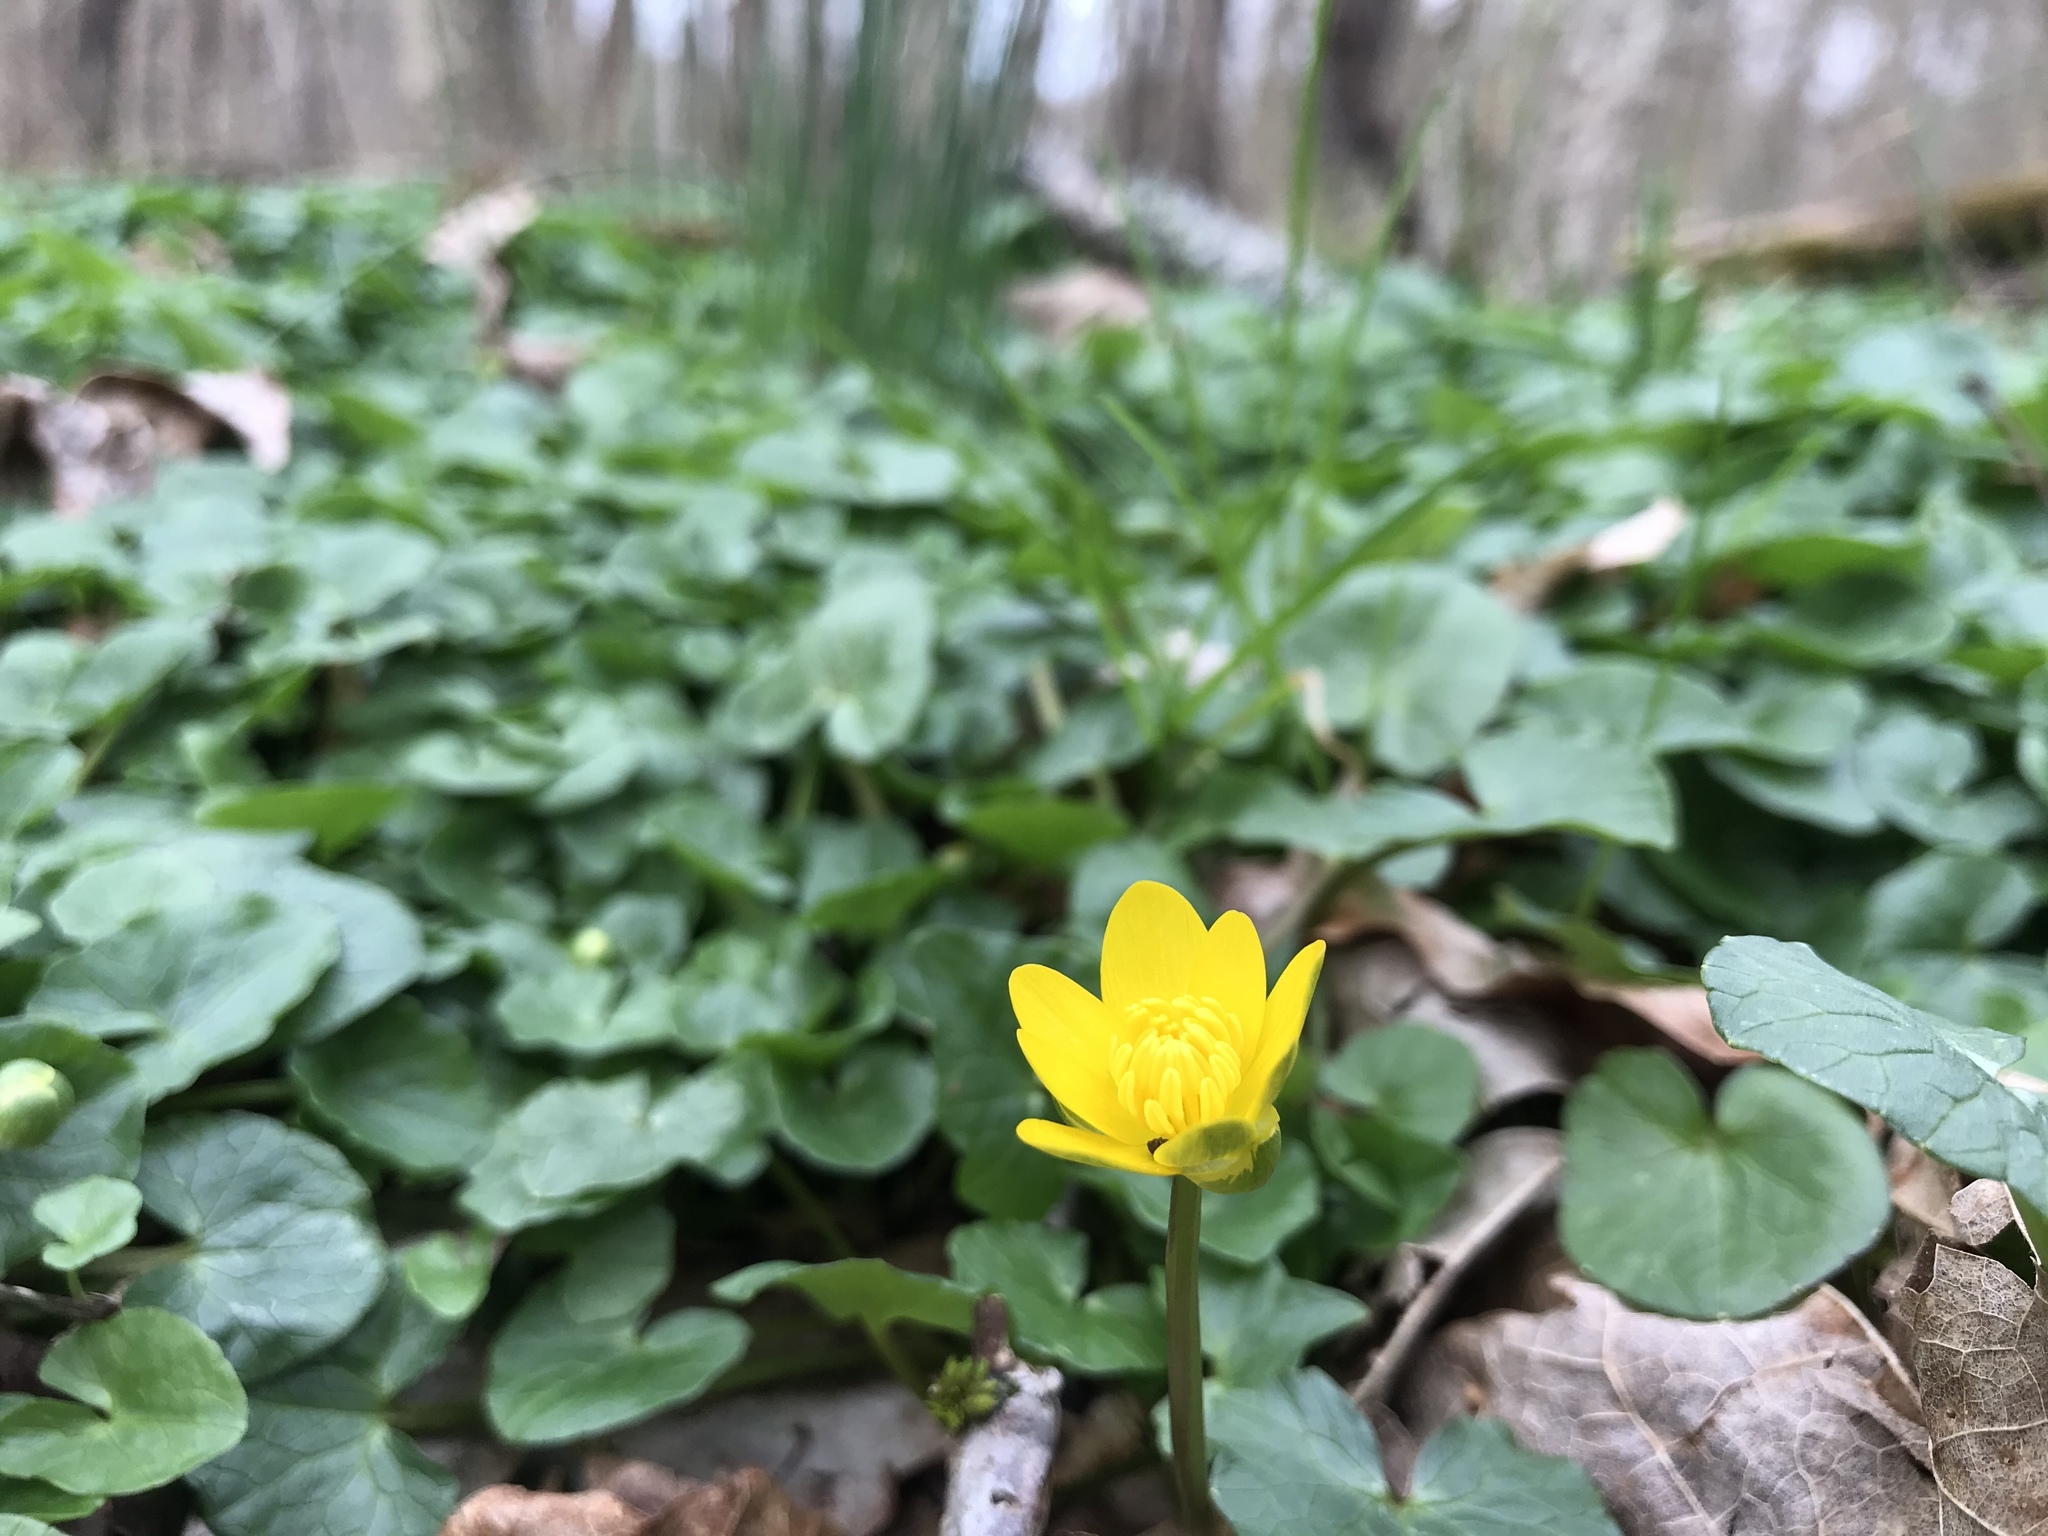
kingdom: Plantae
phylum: Tracheophyta
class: Magnoliopsida
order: Ranunculales
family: Ranunculaceae
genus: Ficaria
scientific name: Ficaria verna
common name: Lesser celandine
